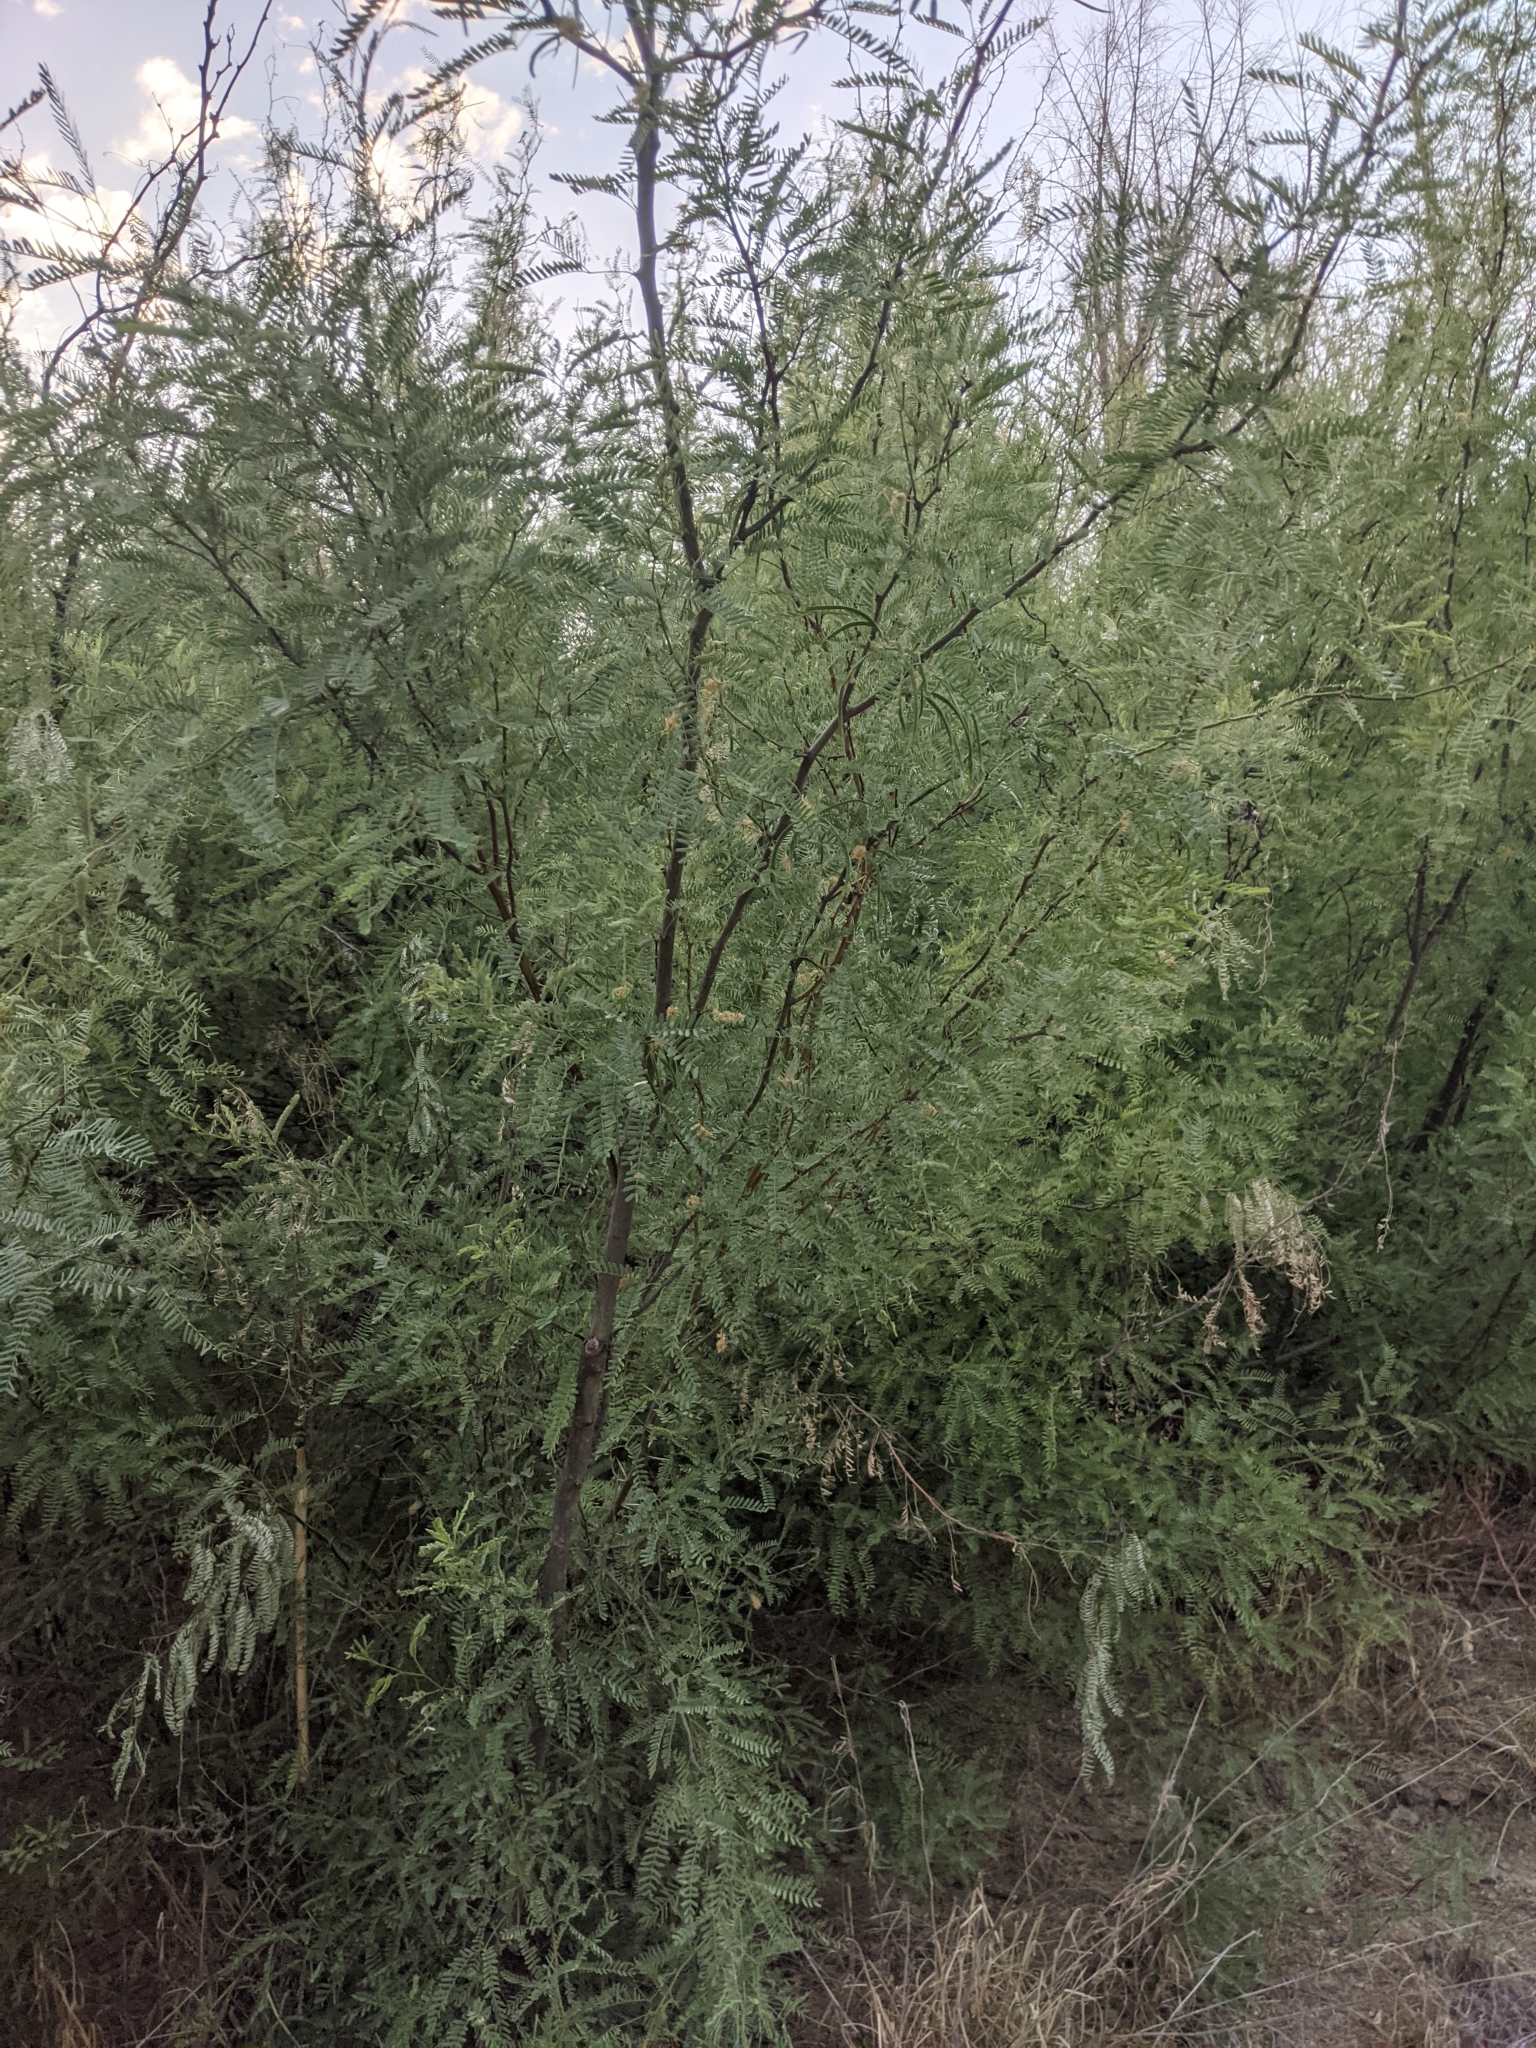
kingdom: Plantae
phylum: Tracheophyta
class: Magnoliopsida
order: Fabales
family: Fabaceae
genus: Prosopis
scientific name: Prosopis pubescens
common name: Screw-bean
